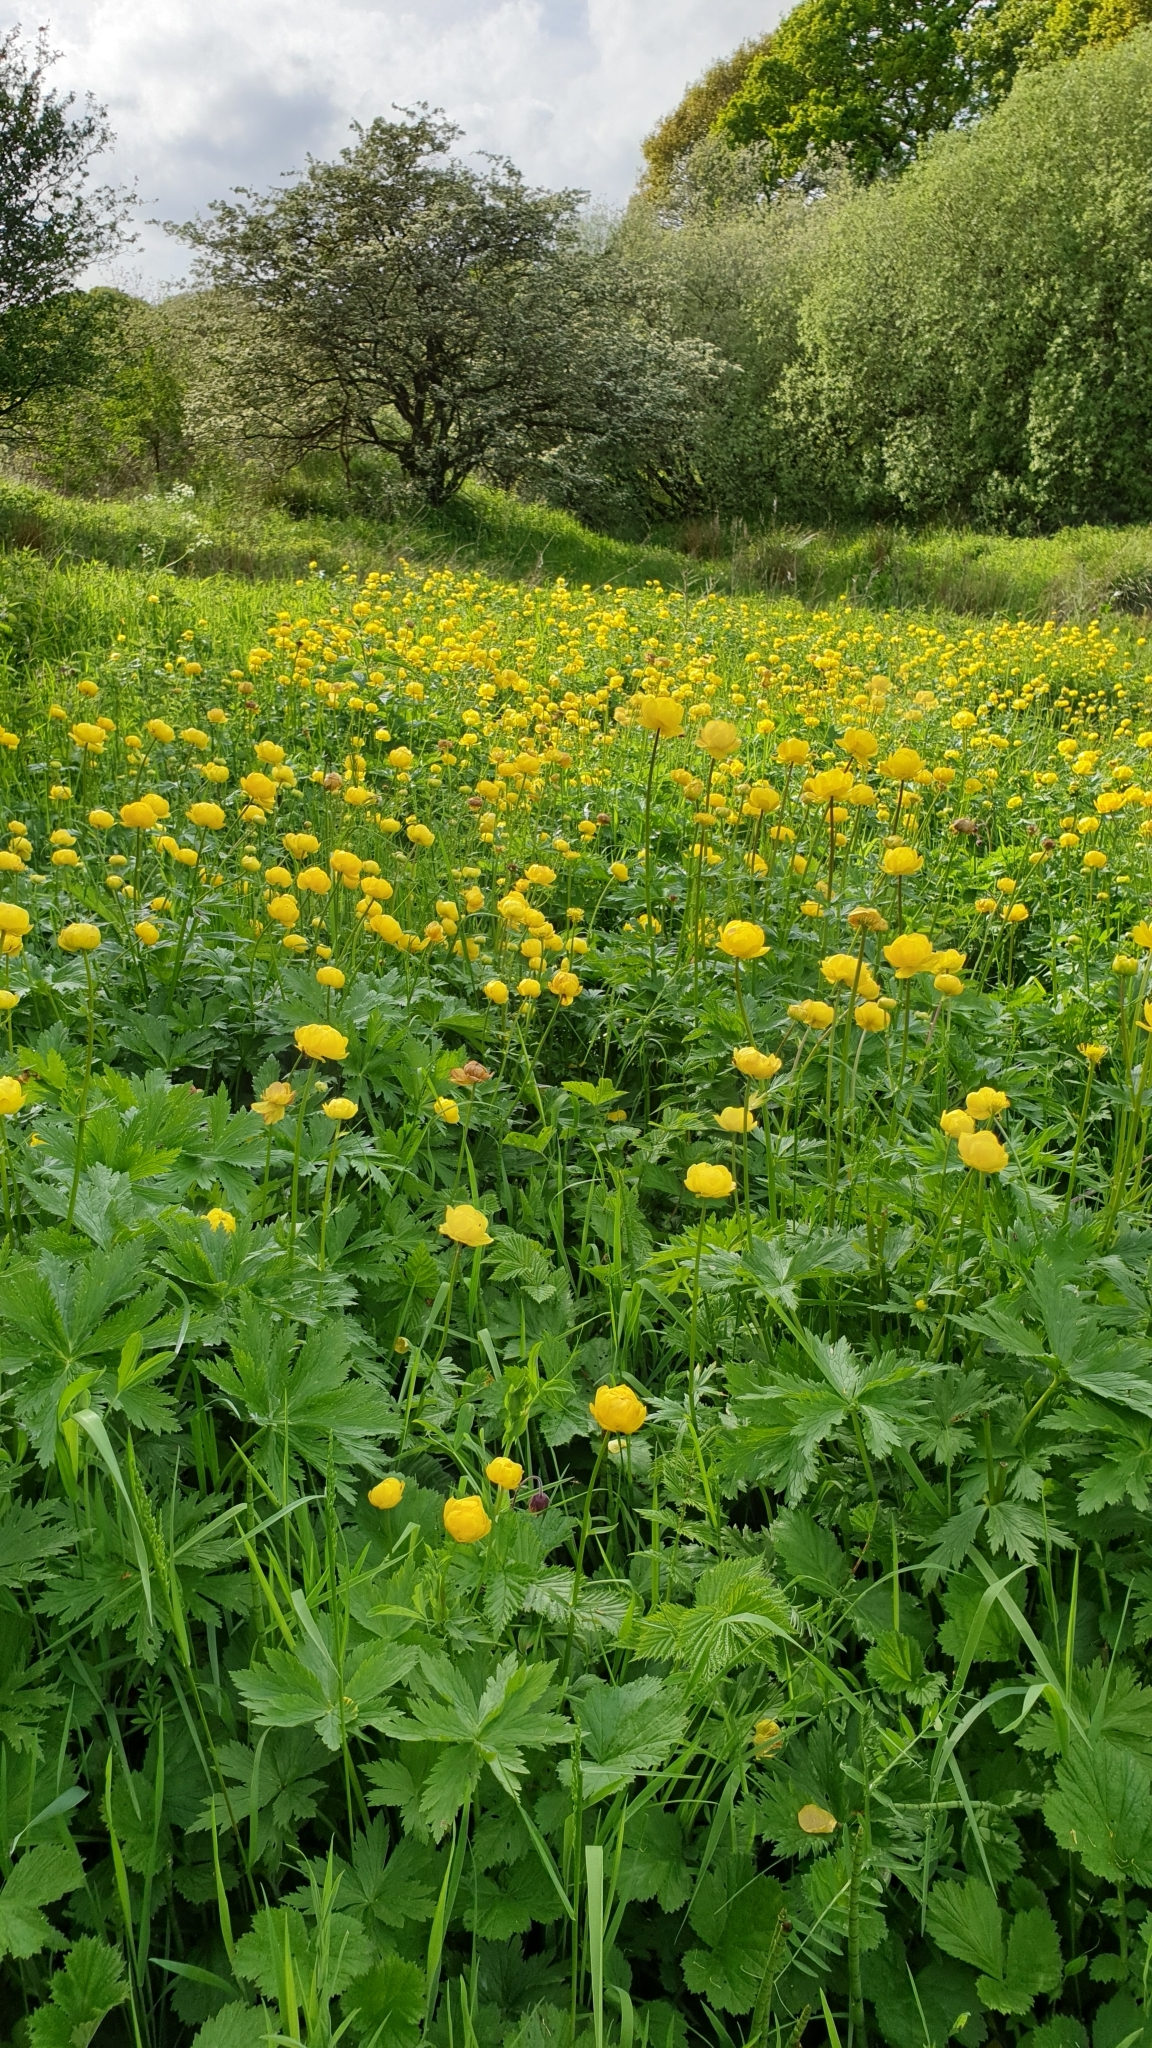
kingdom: Plantae
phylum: Tracheophyta
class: Magnoliopsida
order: Ranunculales
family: Ranunculaceae
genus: Trollius
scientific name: Trollius europaeus
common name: European globeflower
